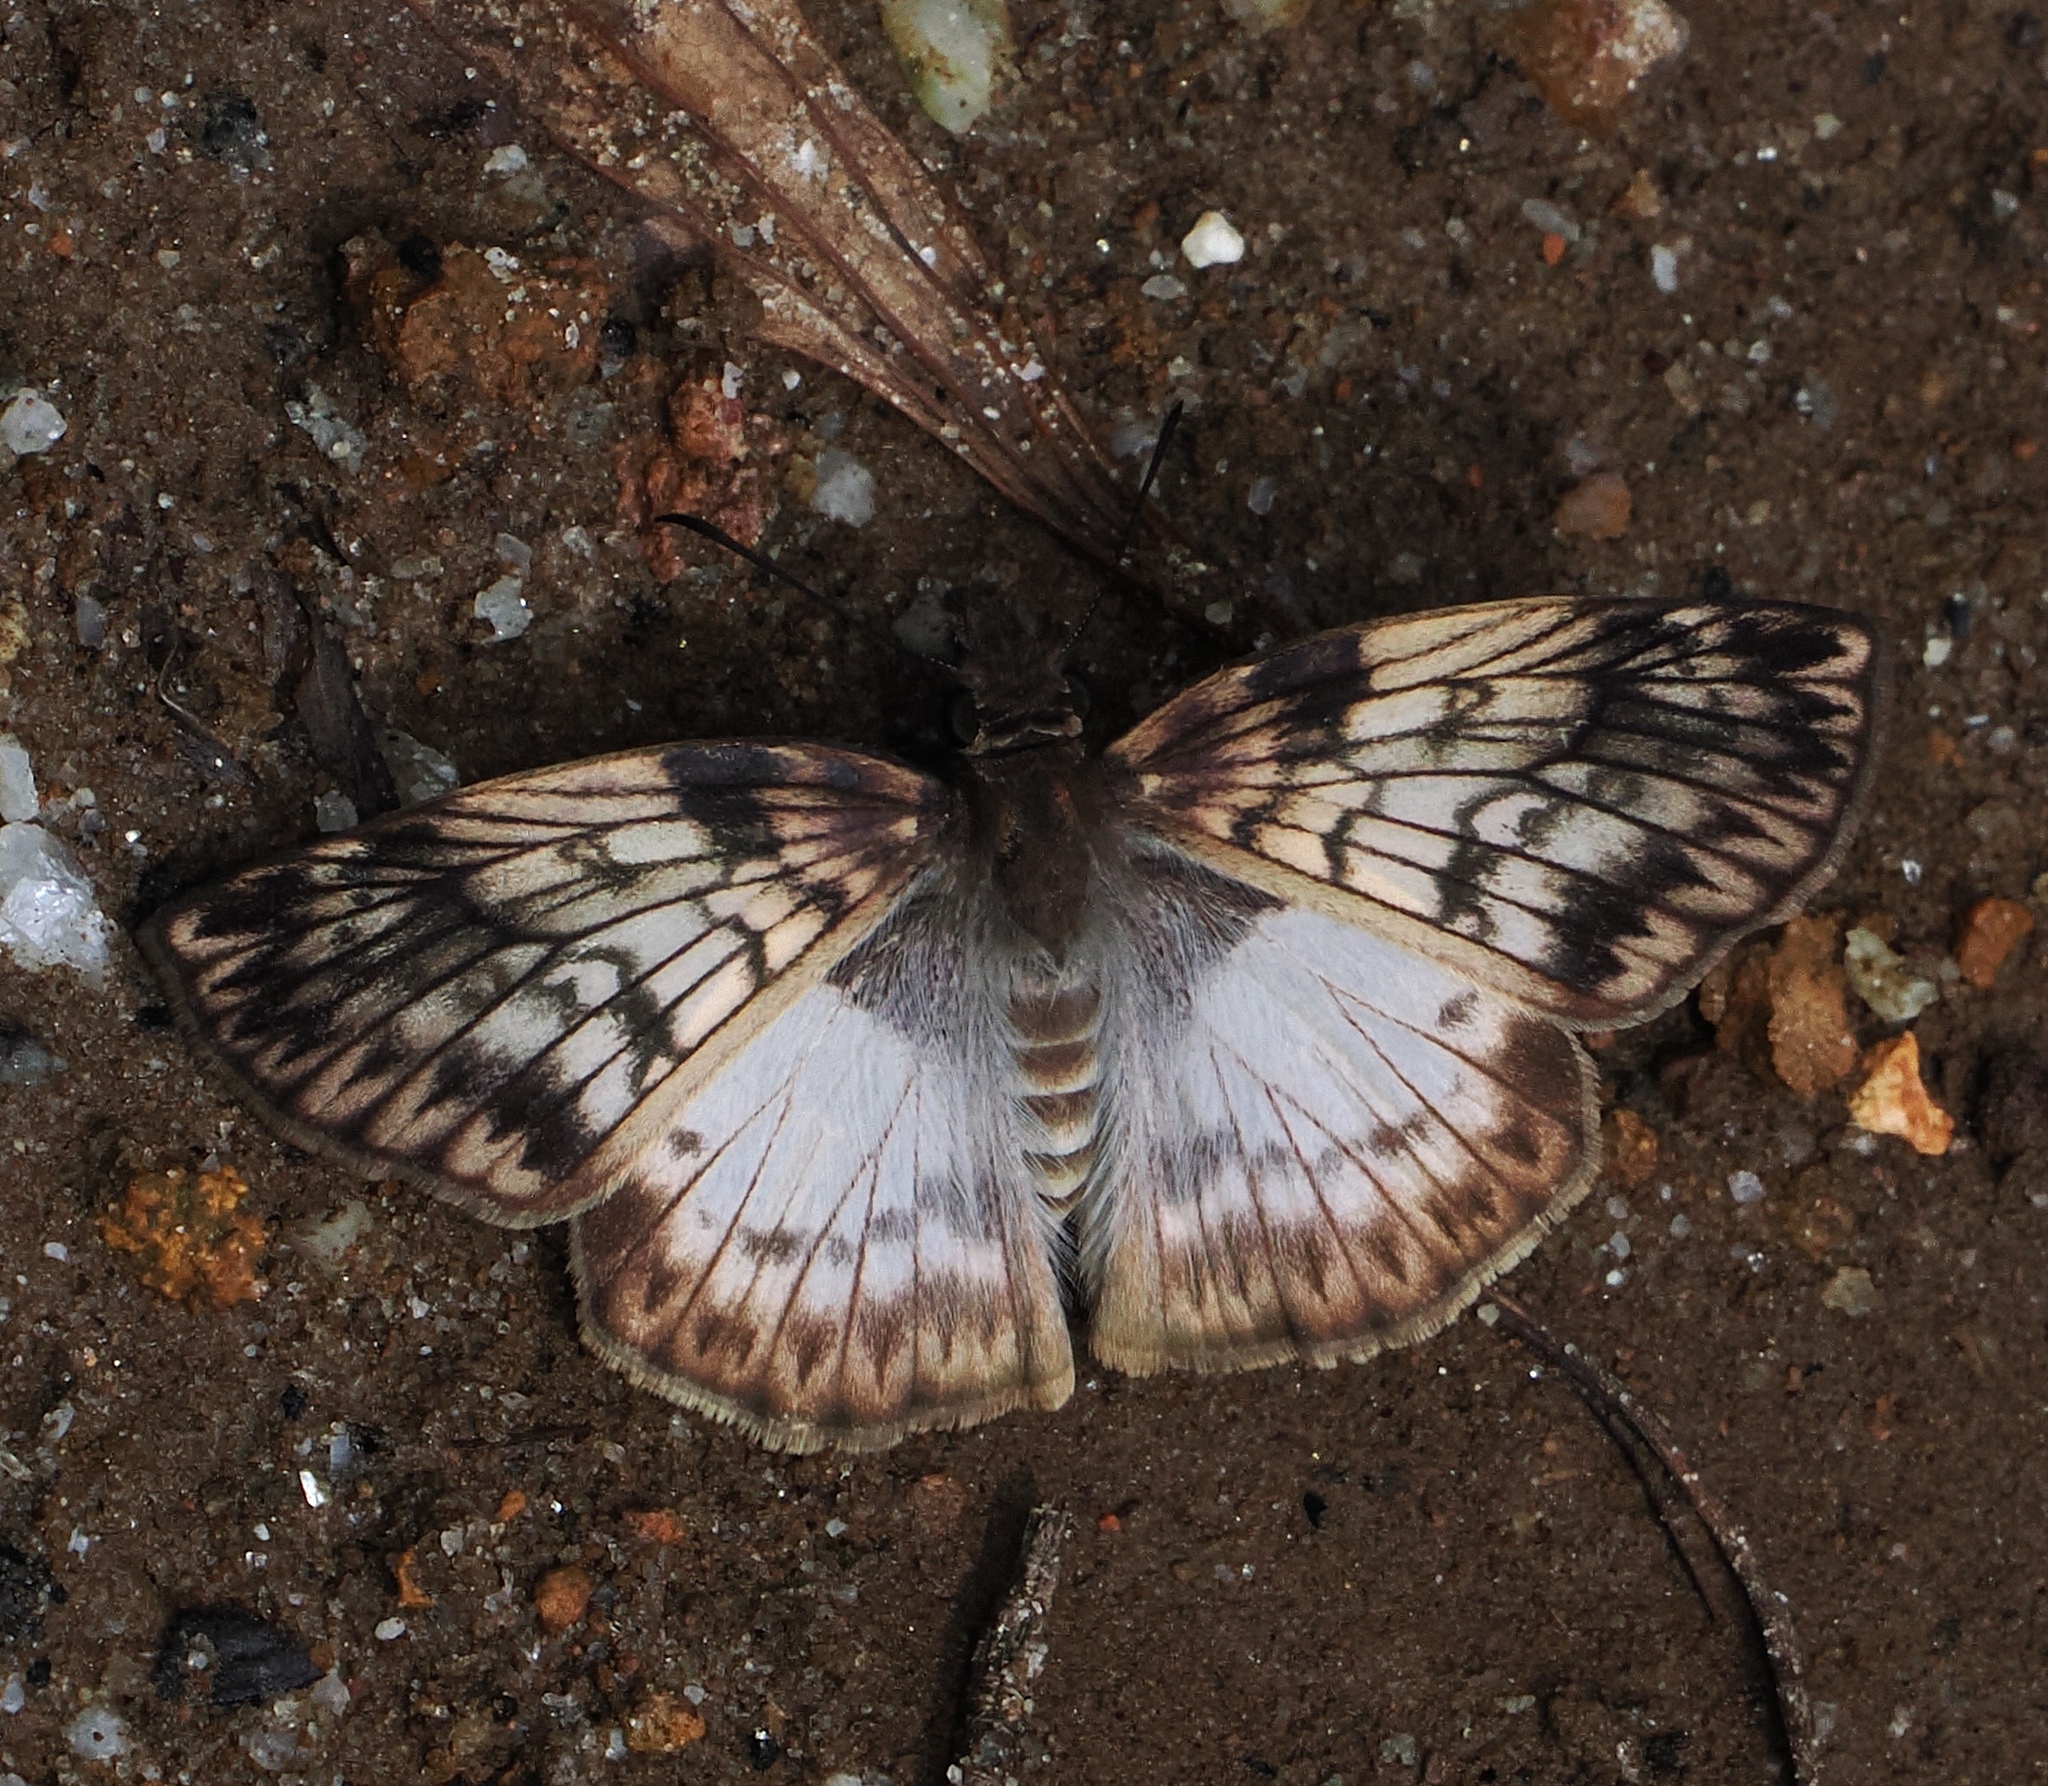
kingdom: Animalia
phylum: Arthropoda
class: Insecta
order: Lepidoptera
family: Hesperiidae
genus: Mylon
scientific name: Mylon maimon
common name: Common mylon
